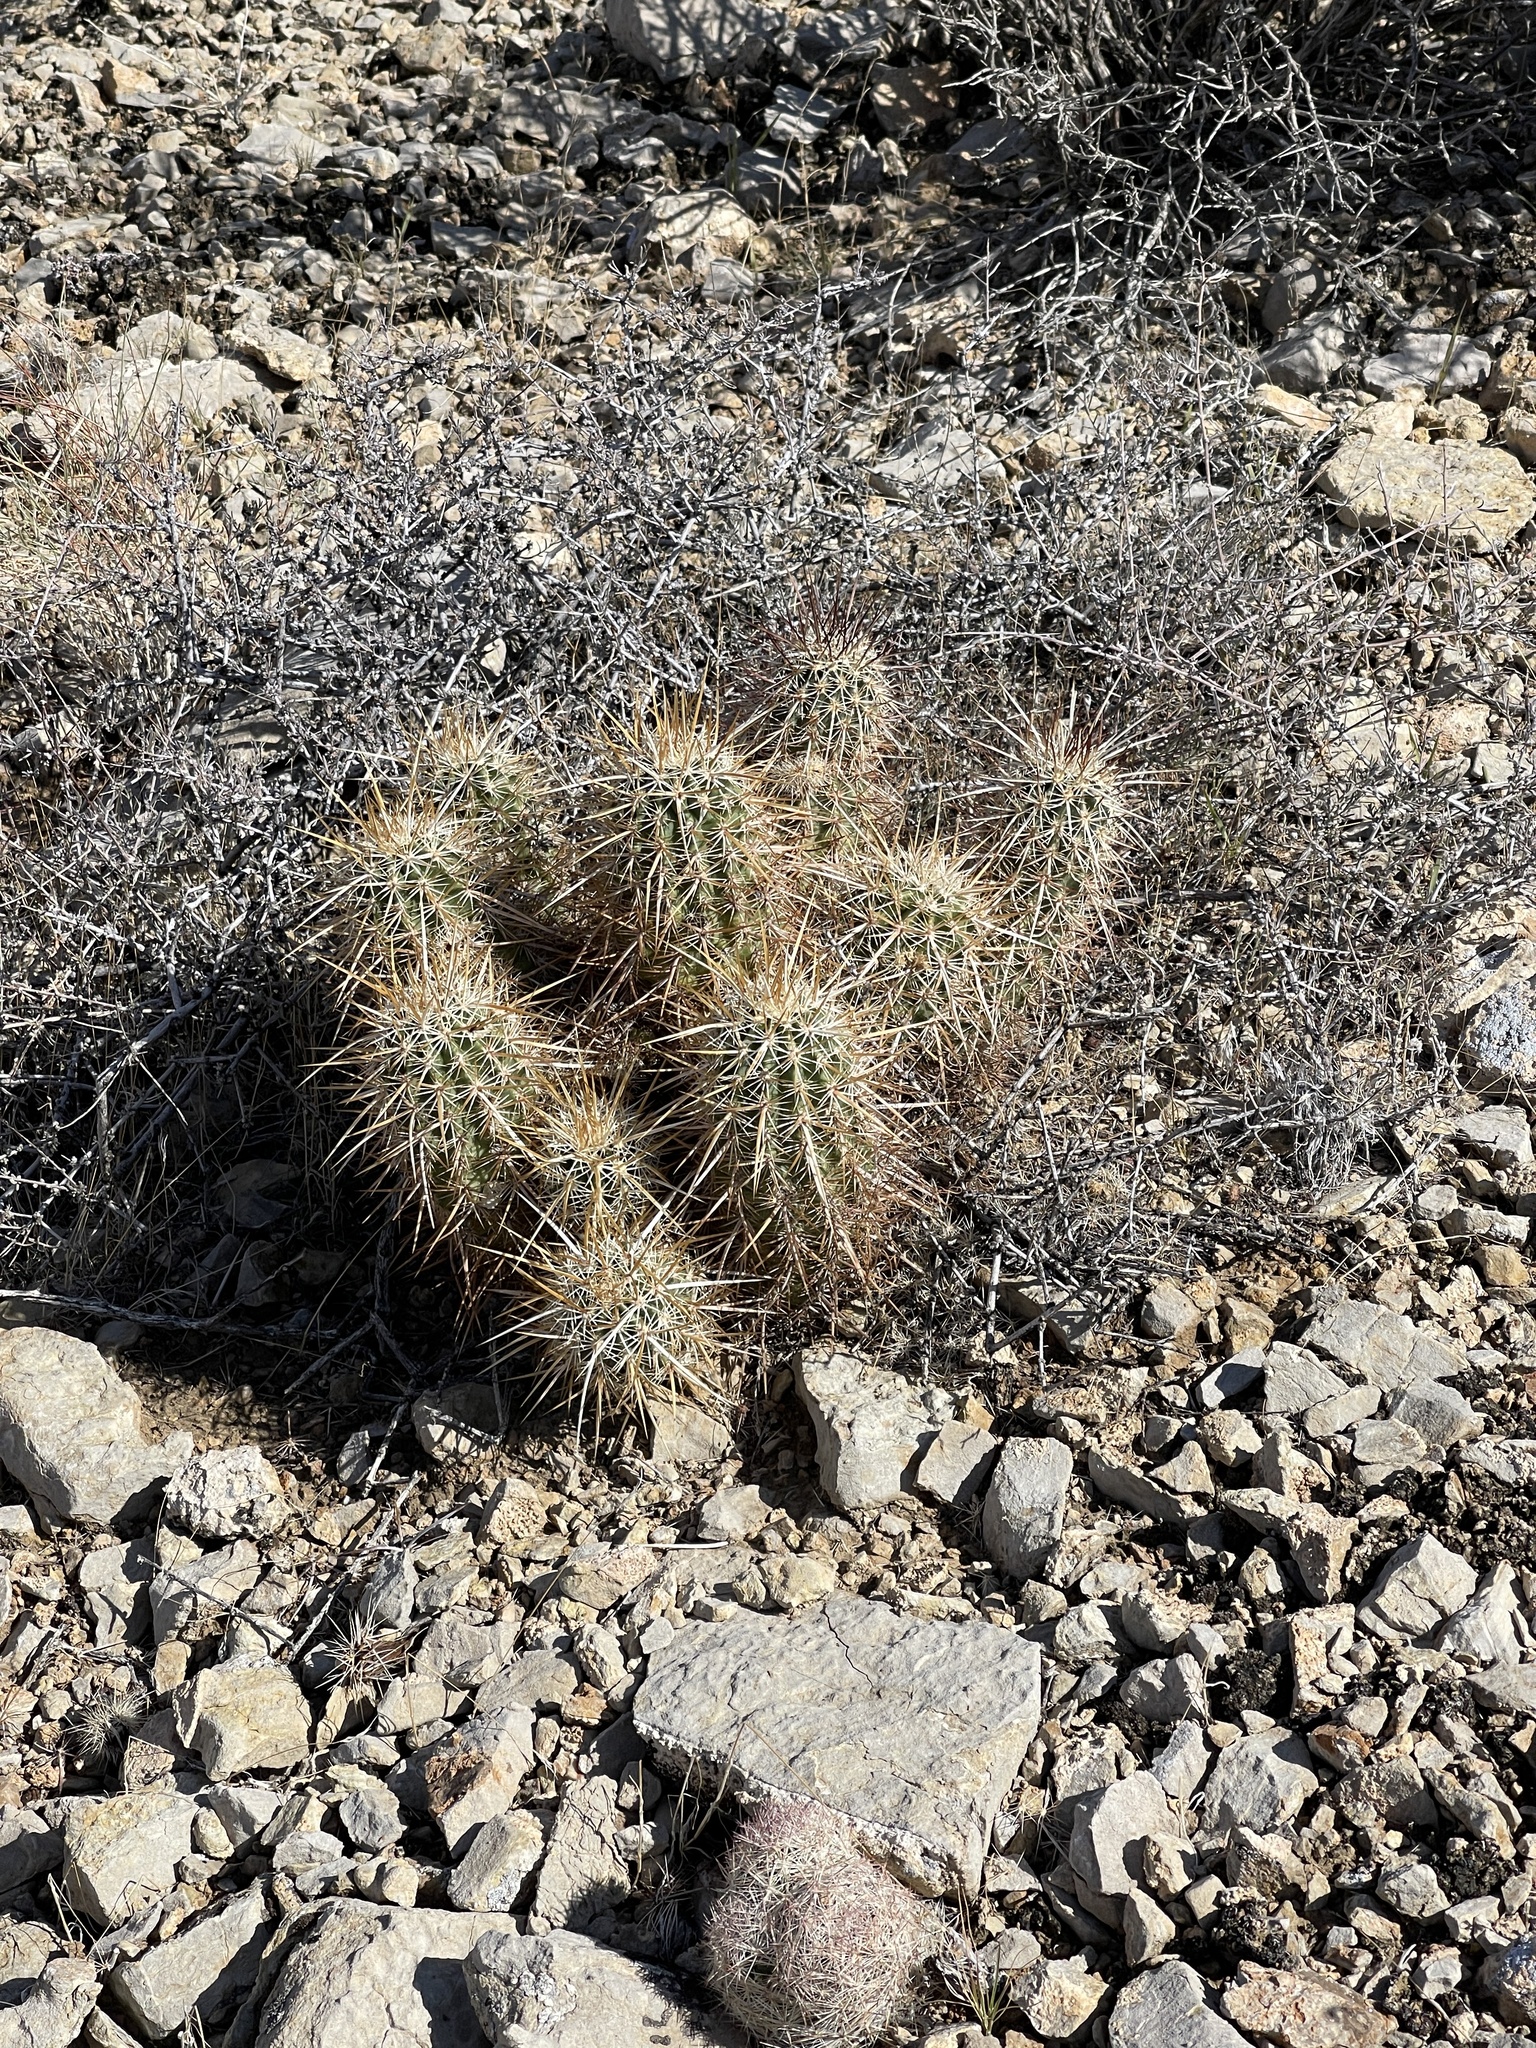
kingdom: Plantae
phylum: Tracheophyta
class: Magnoliopsida
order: Caryophyllales
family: Cactaceae
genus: Echinocereus
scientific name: Echinocereus engelmannii
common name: Engelmann's hedgehog cactus
